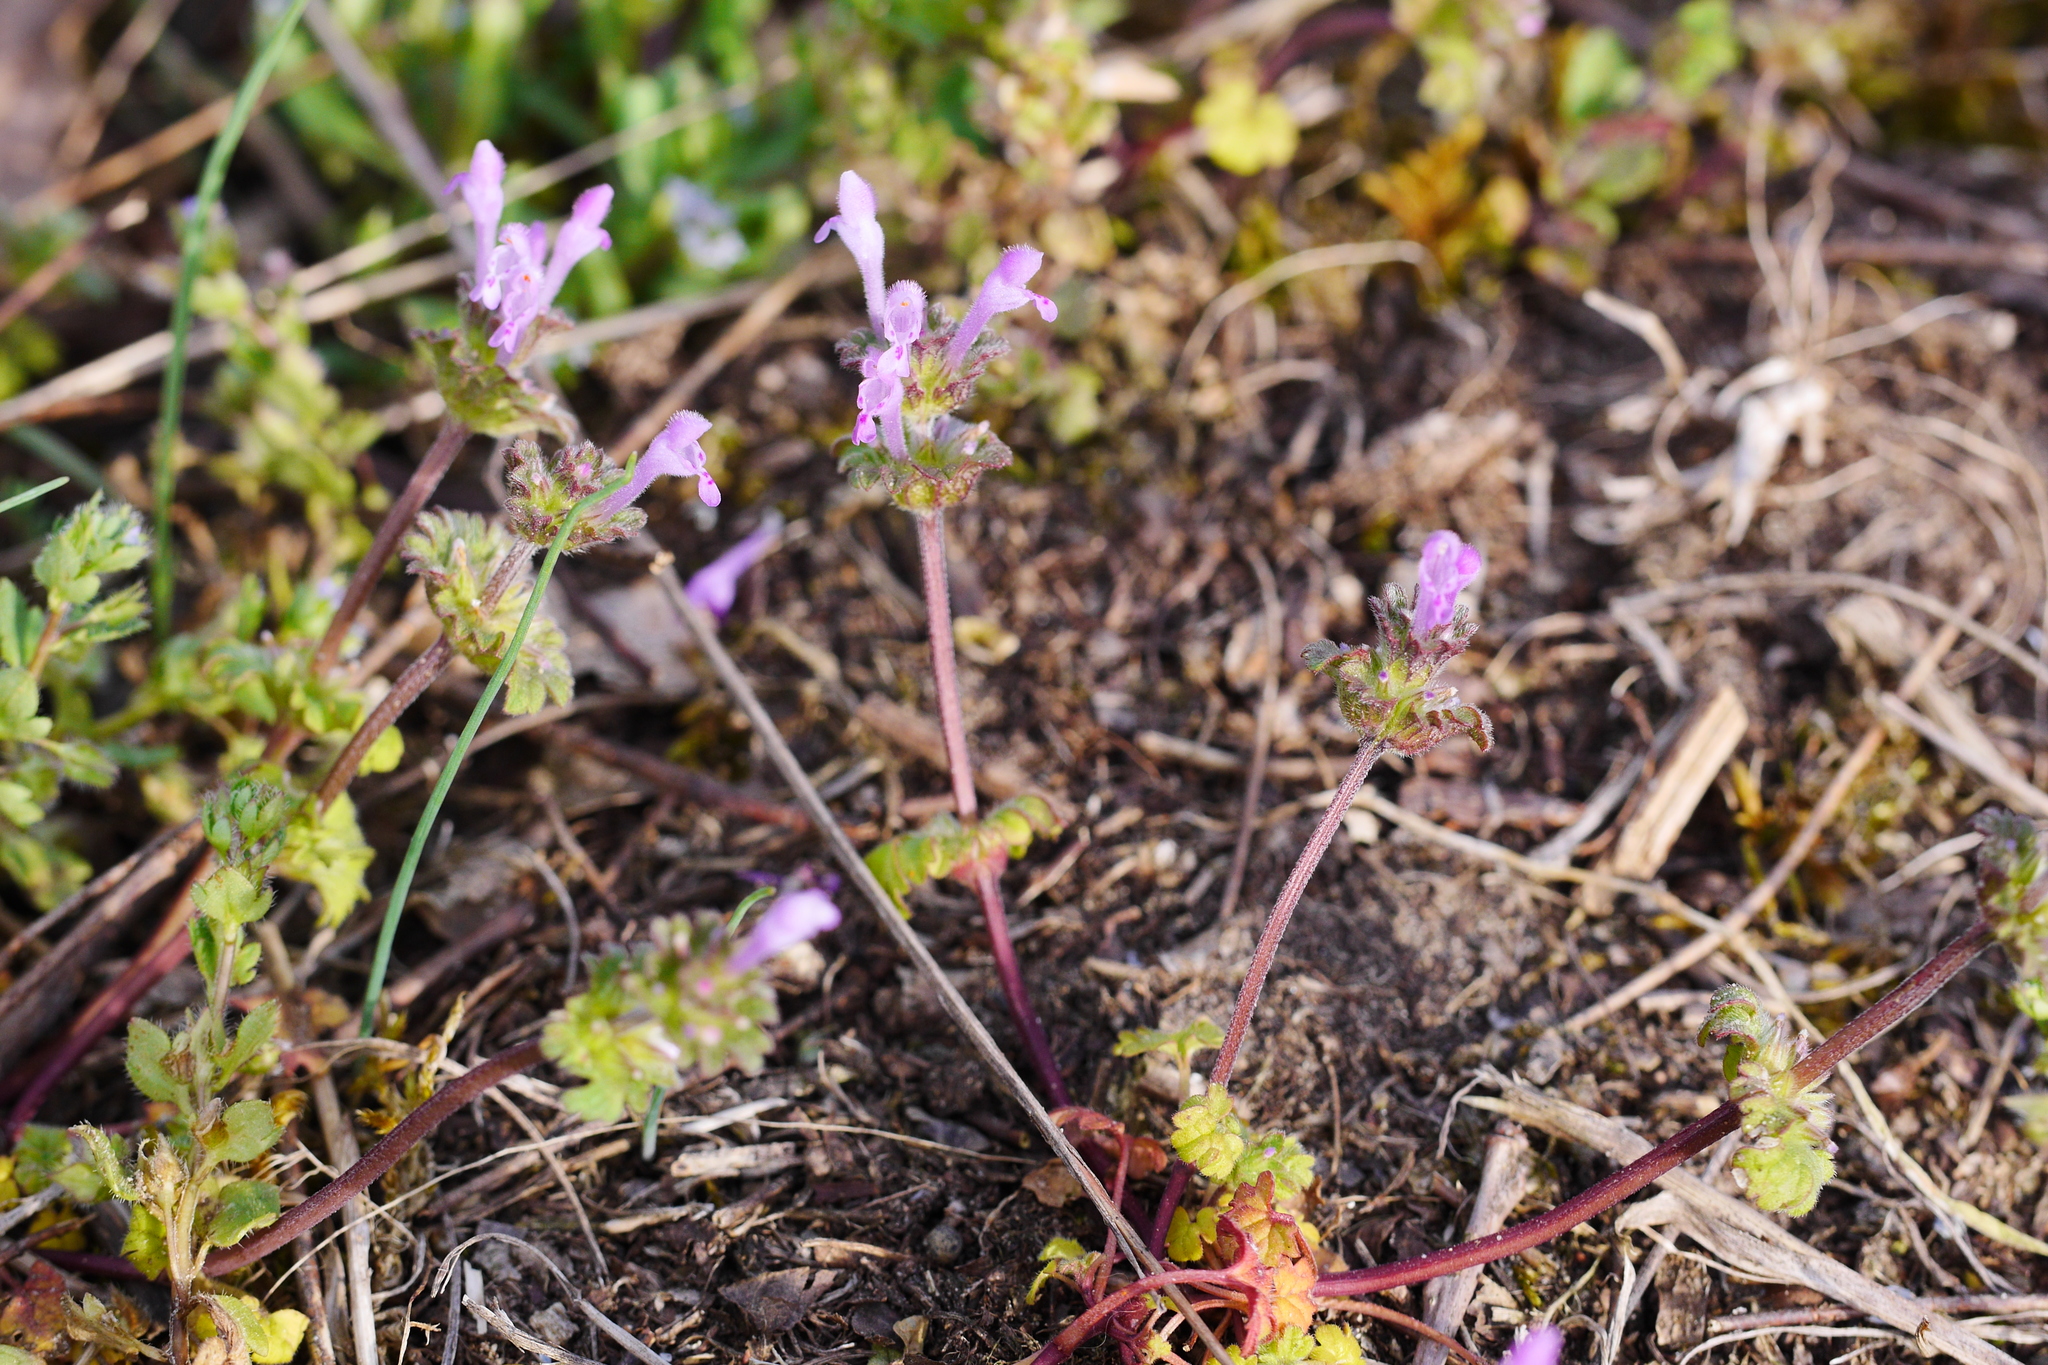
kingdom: Plantae
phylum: Tracheophyta
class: Magnoliopsida
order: Lamiales
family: Lamiaceae
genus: Lamium
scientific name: Lamium amplexicaule
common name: Henbit dead-nettle
